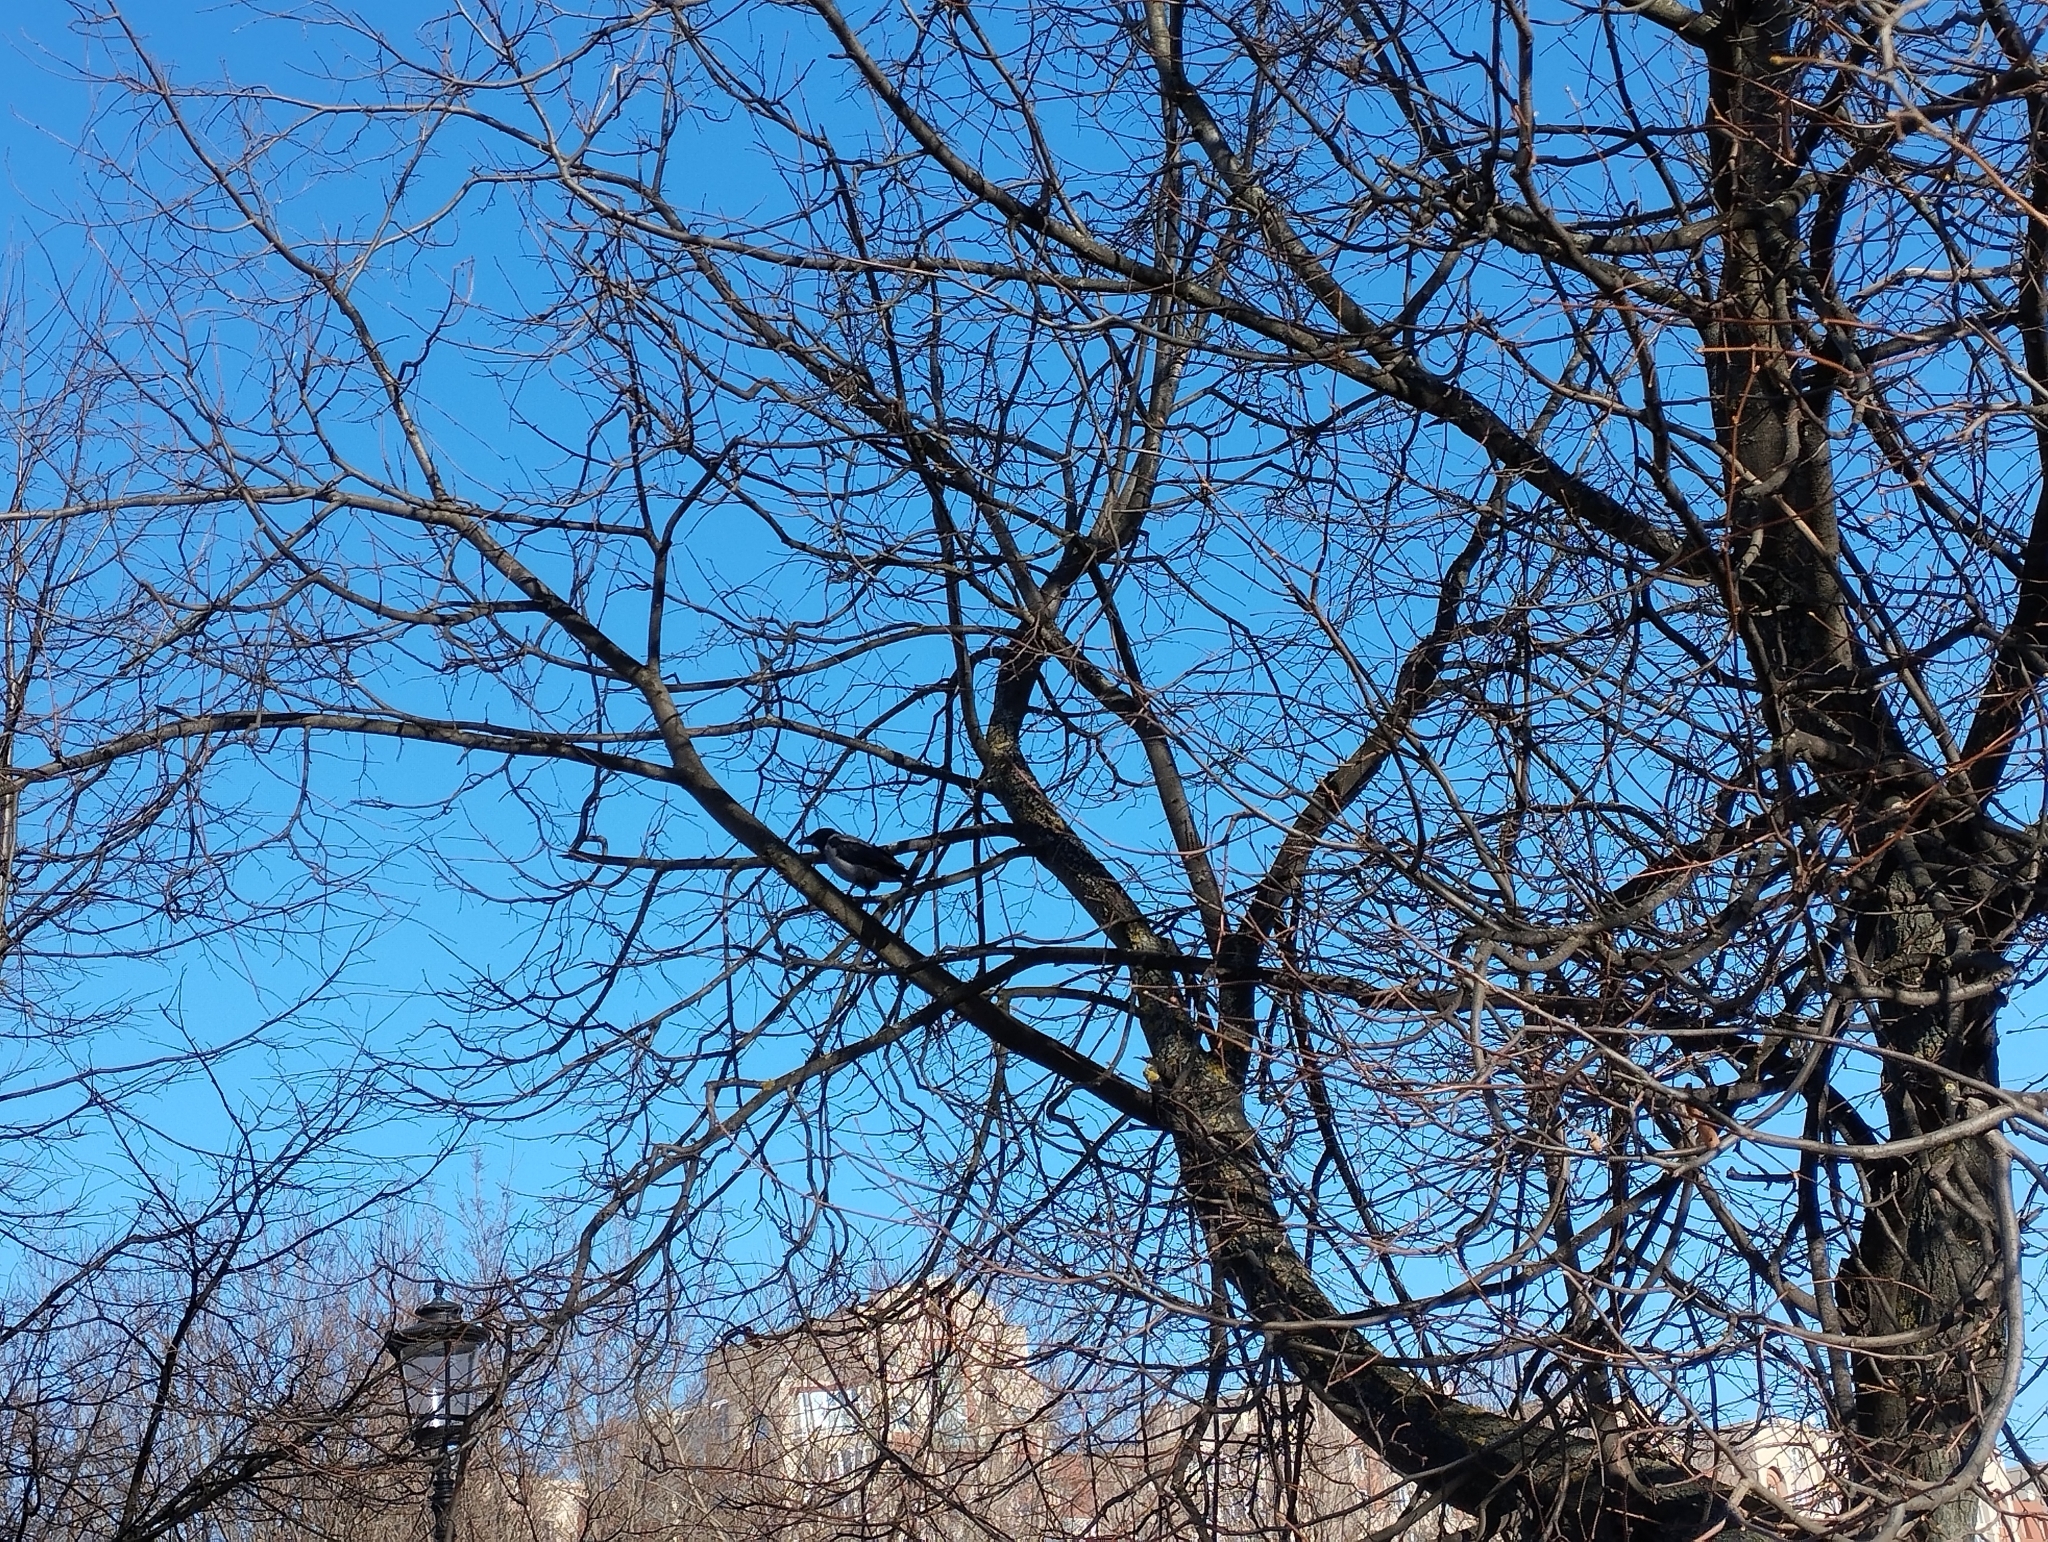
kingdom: Animalia
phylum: Chordata
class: Aves
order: Passeriformes
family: Corvidae
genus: Corvus
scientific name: Corvus cornix
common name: Hooded crow
